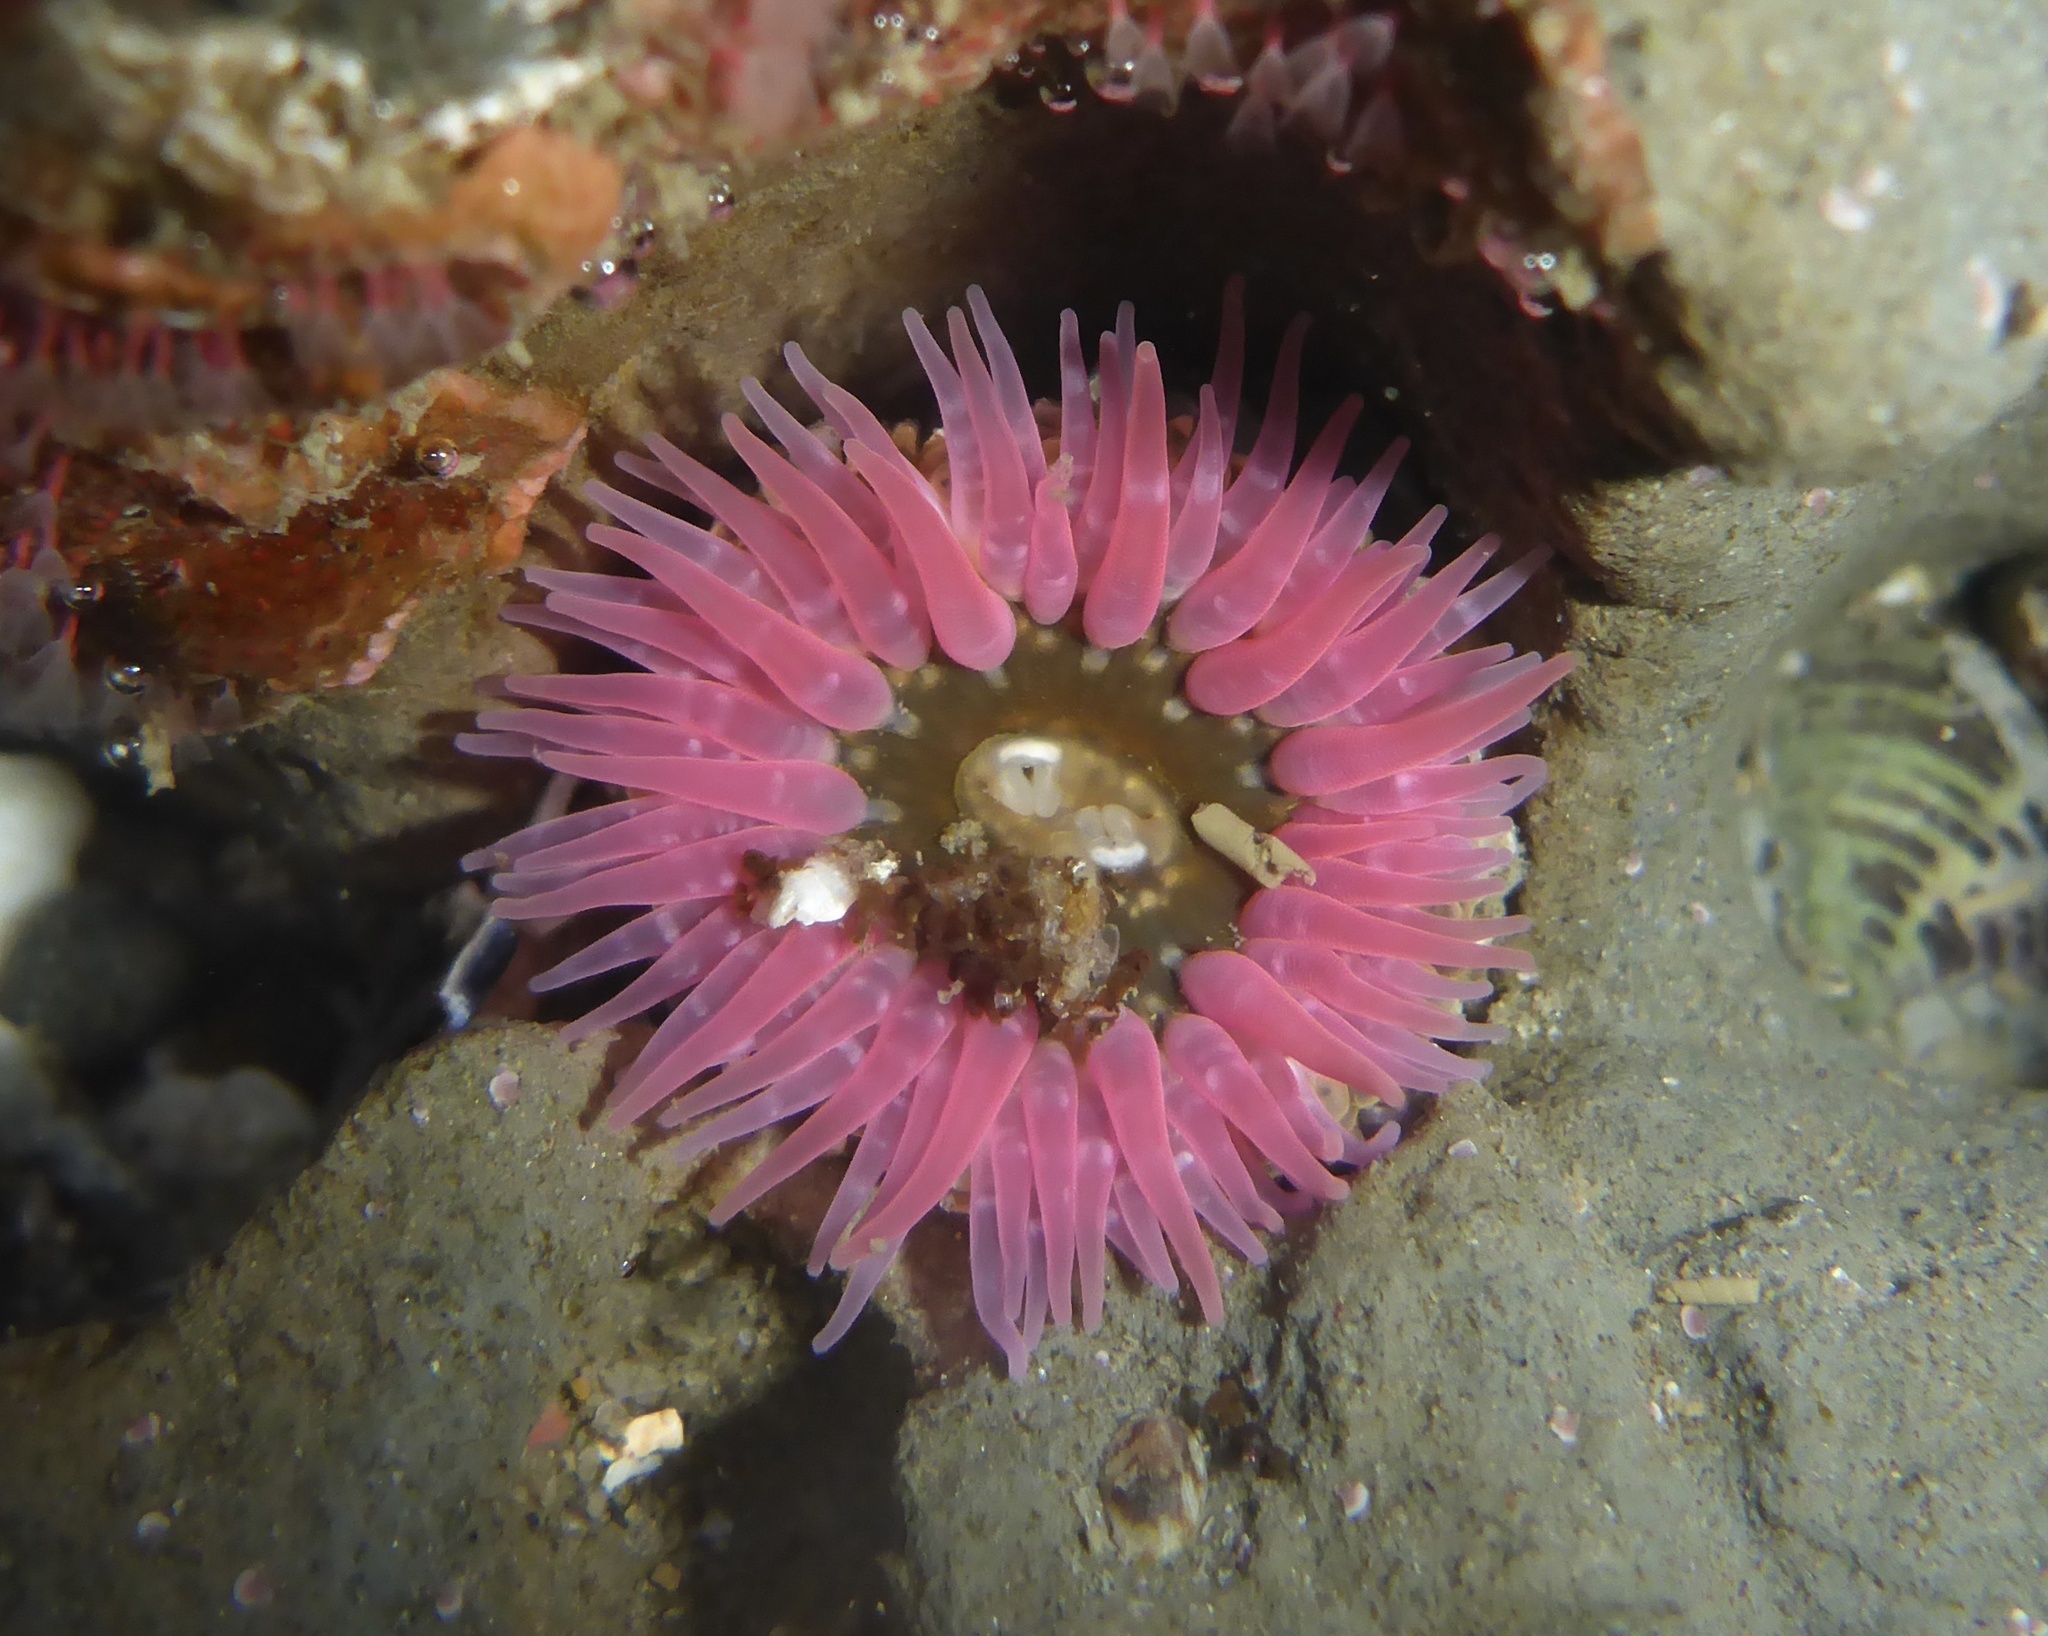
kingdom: Animalia
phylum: Cnidaria
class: Anthozoa
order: Actiniaria
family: Actiniidae
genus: Anthopleura
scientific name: Anthopleura artemisia
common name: Buried sea anemone
